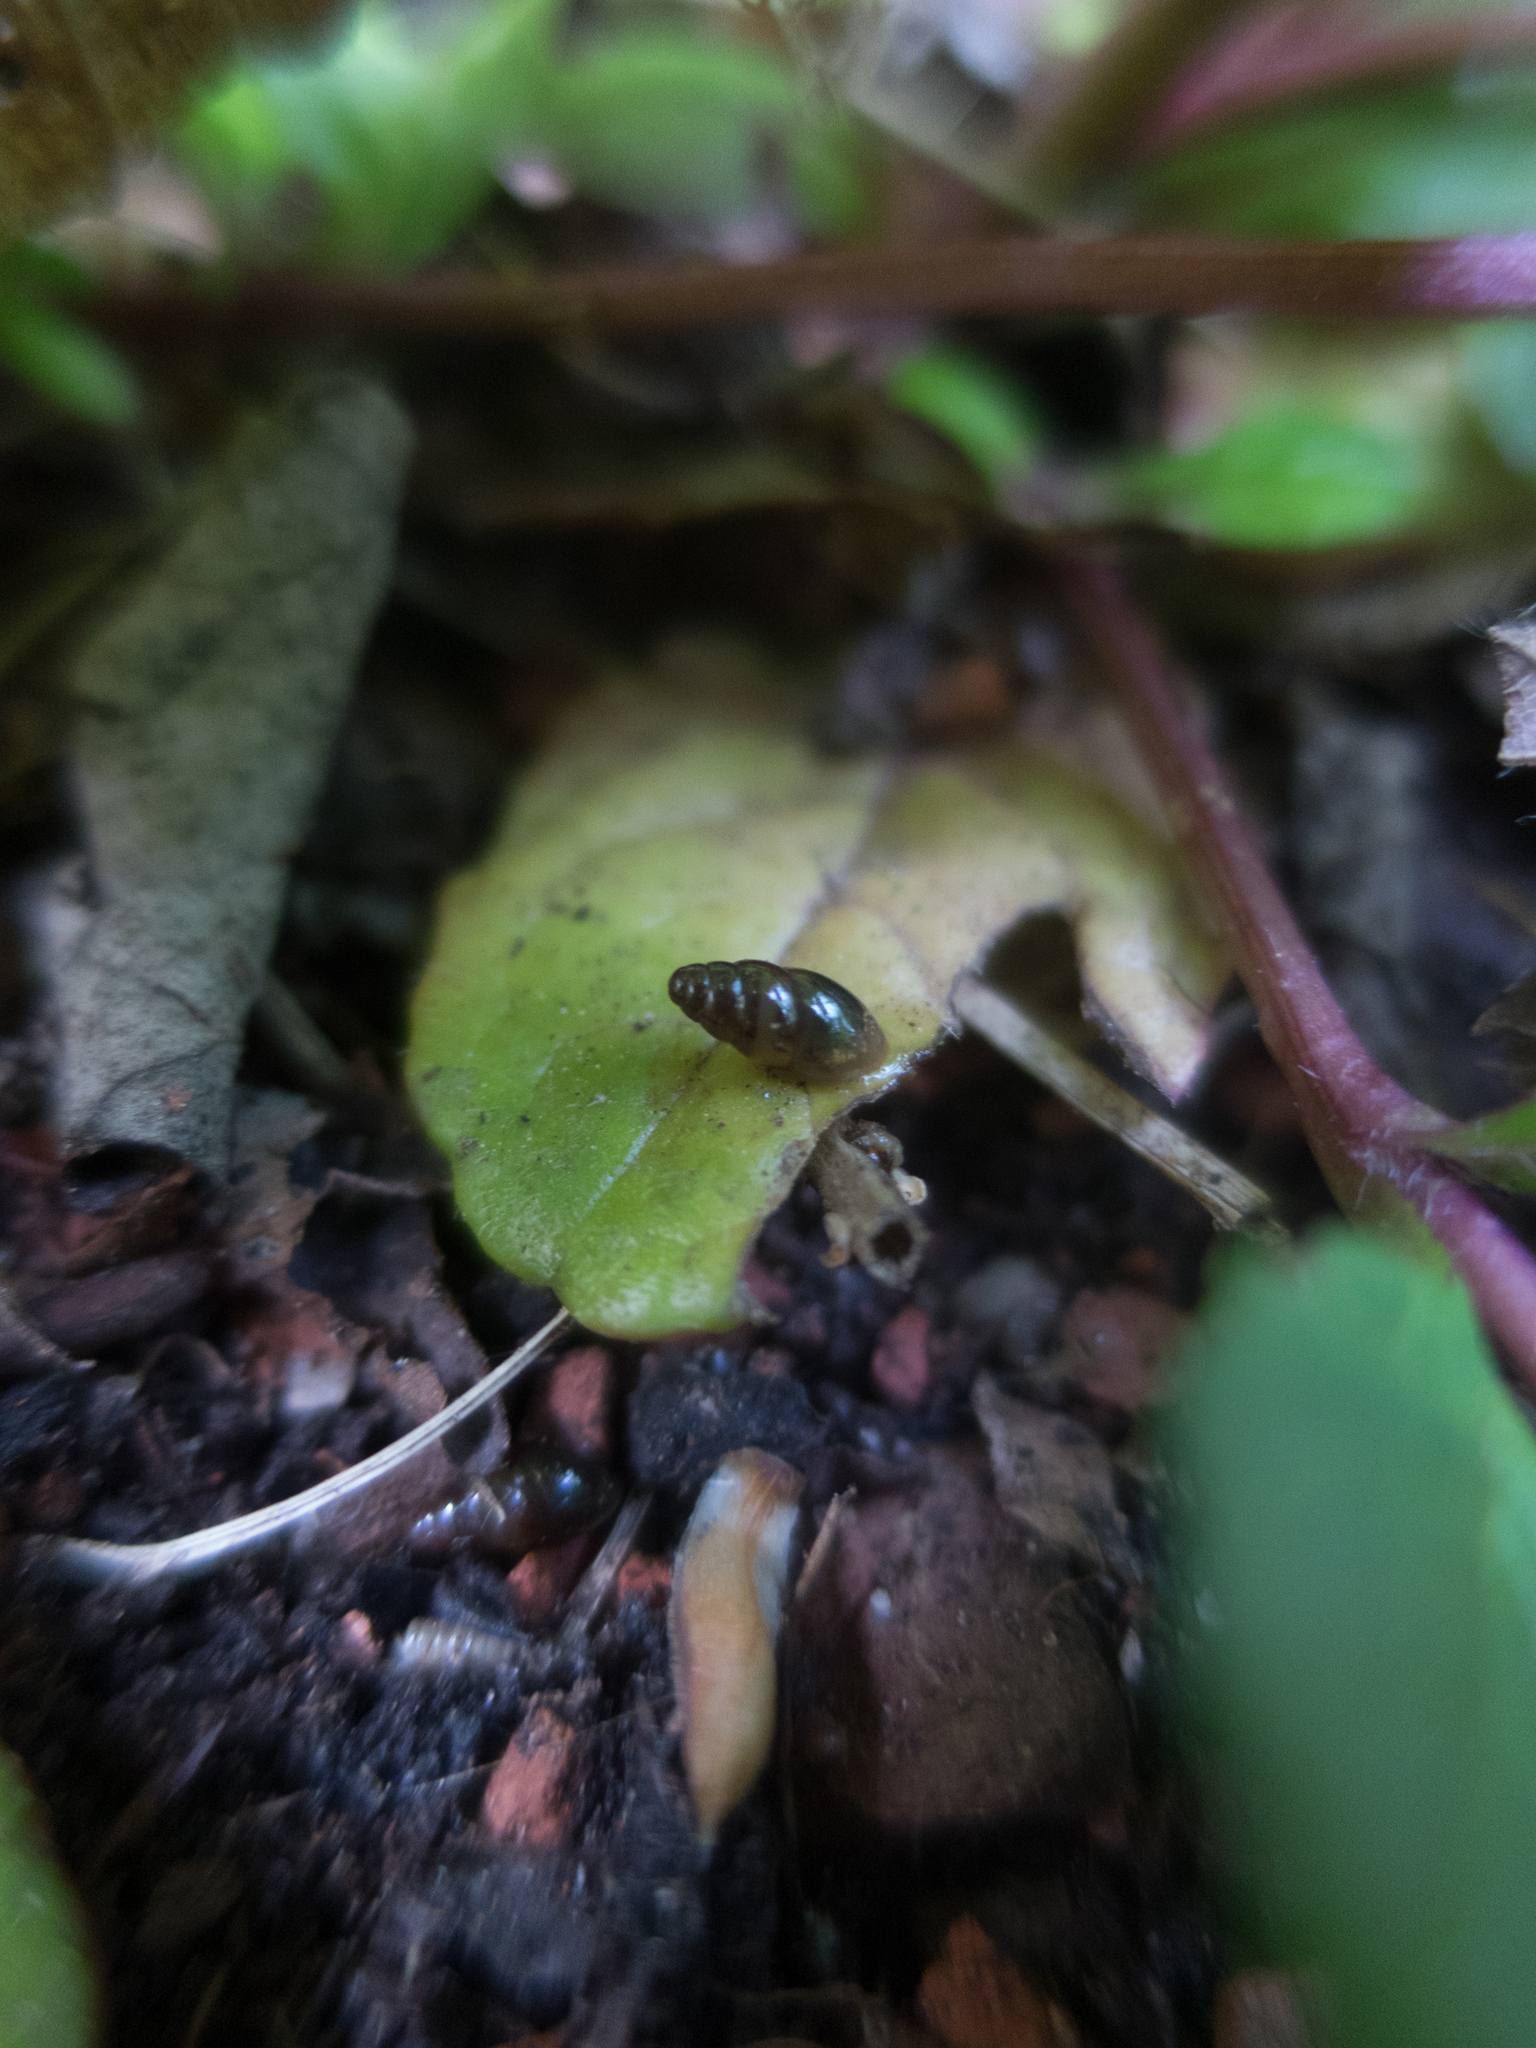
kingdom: Animalia
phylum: Mollusca
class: Gastropoda
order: Stylommatophora
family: Cochlicopidae
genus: Cochlicopa
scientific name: Cochlicopa lubrica
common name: Glossy pillar snail
